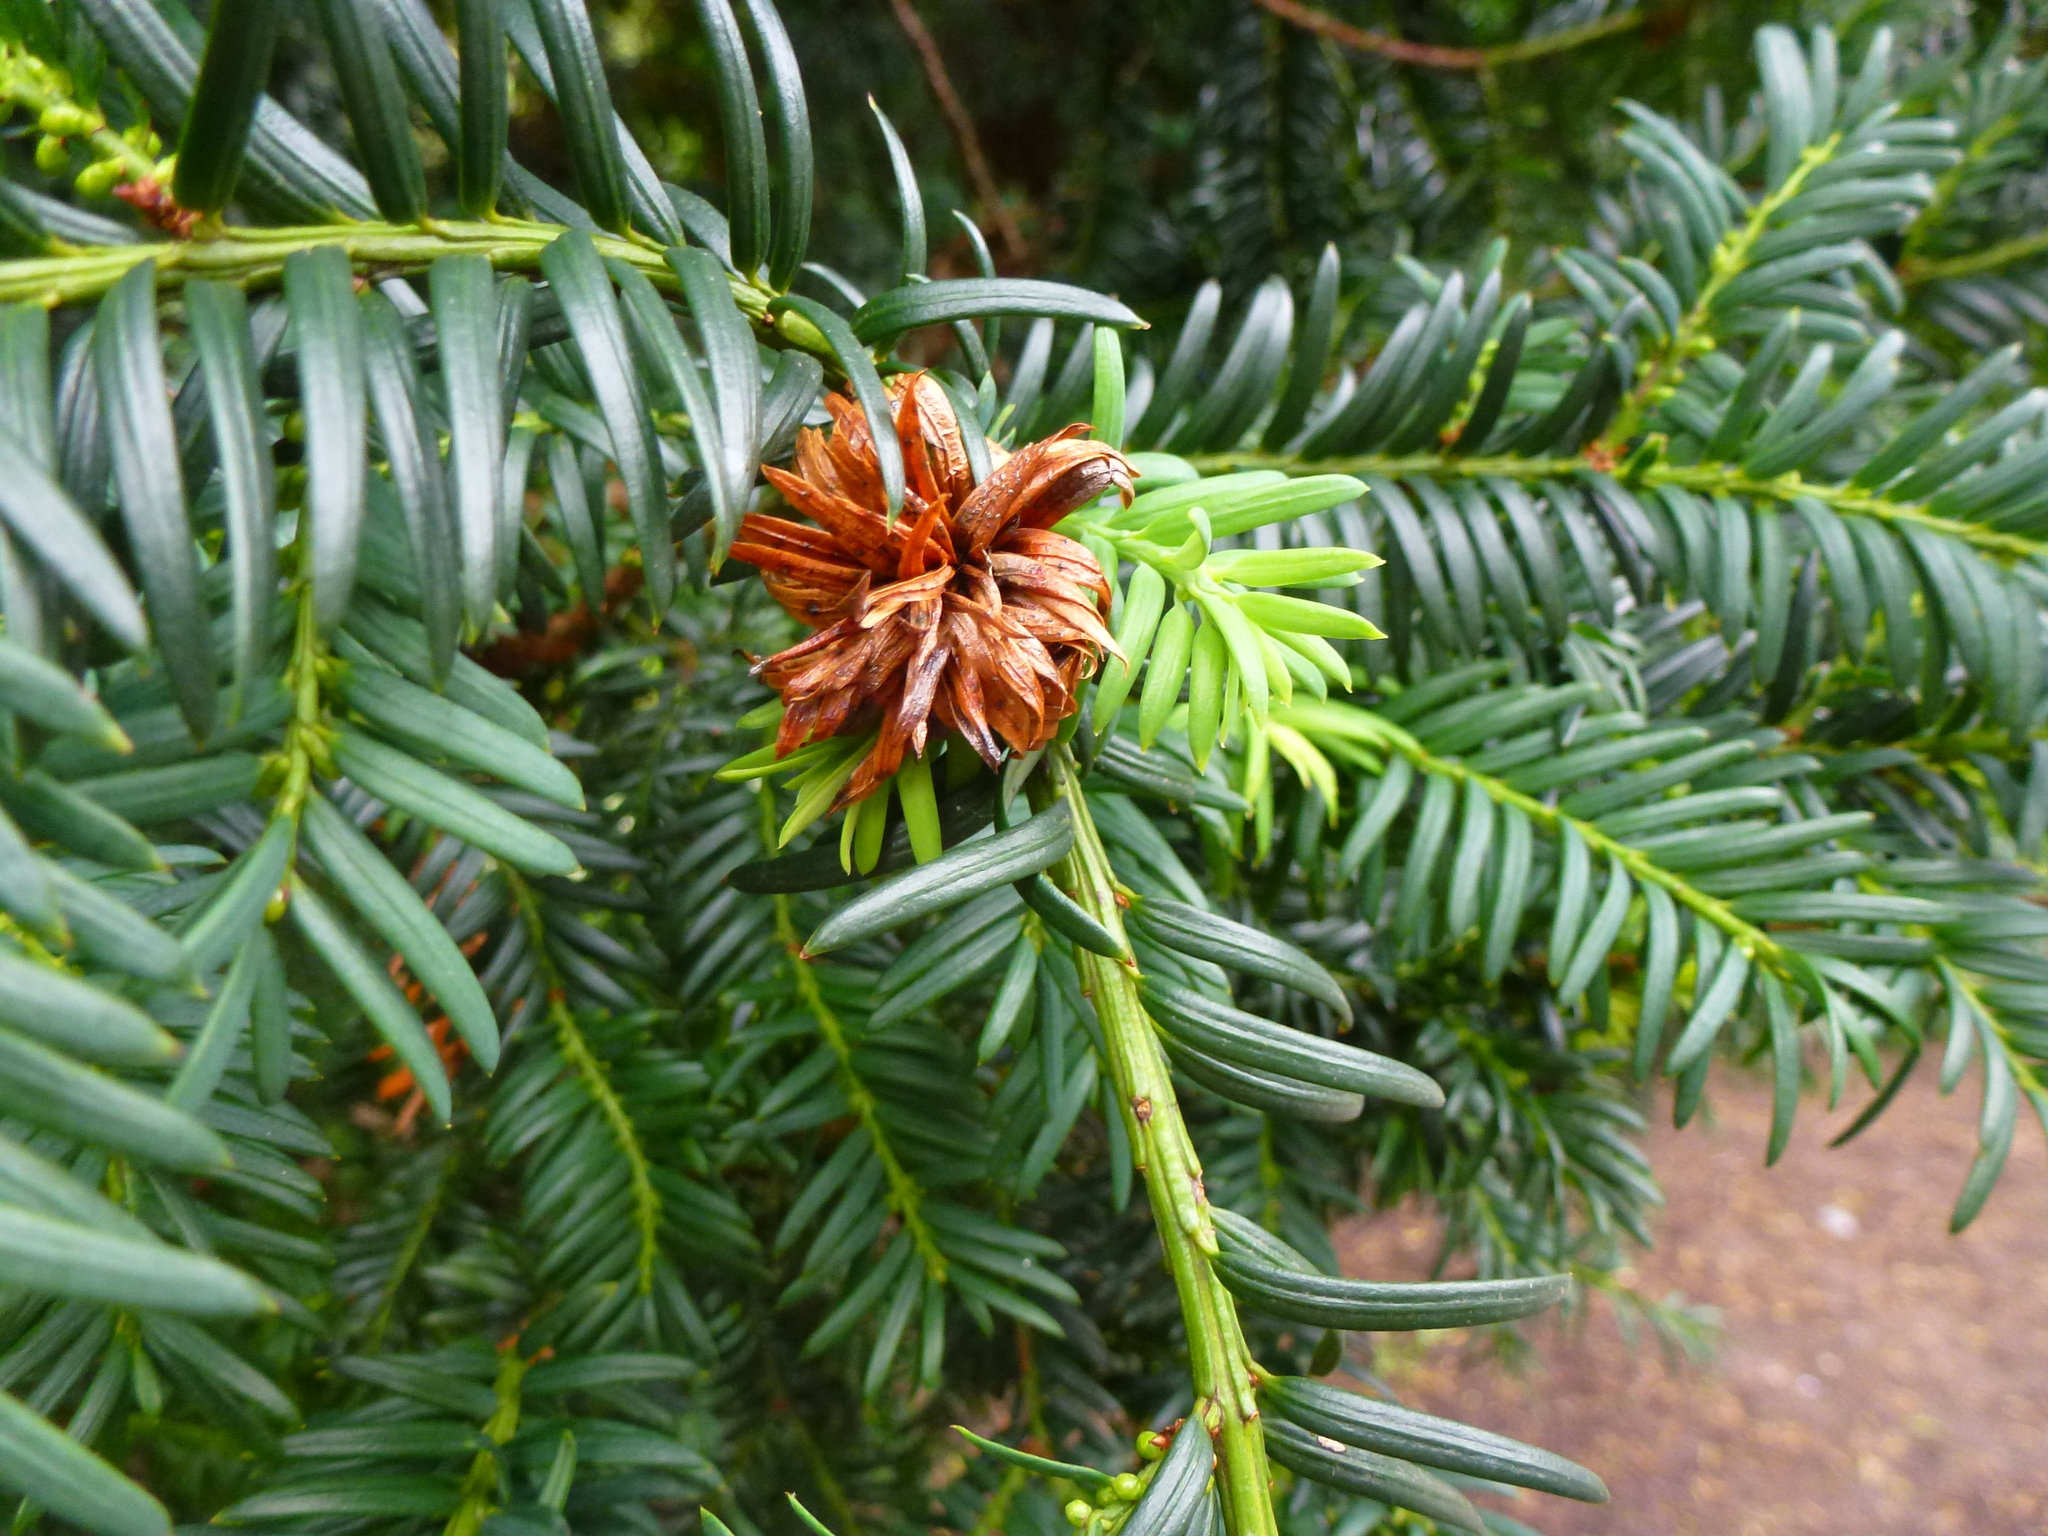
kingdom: Animalia
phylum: Arthropoda
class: Insecta
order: Diptera
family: Cecidomyiidae
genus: Taxomyia
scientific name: Taxomyia taxi
